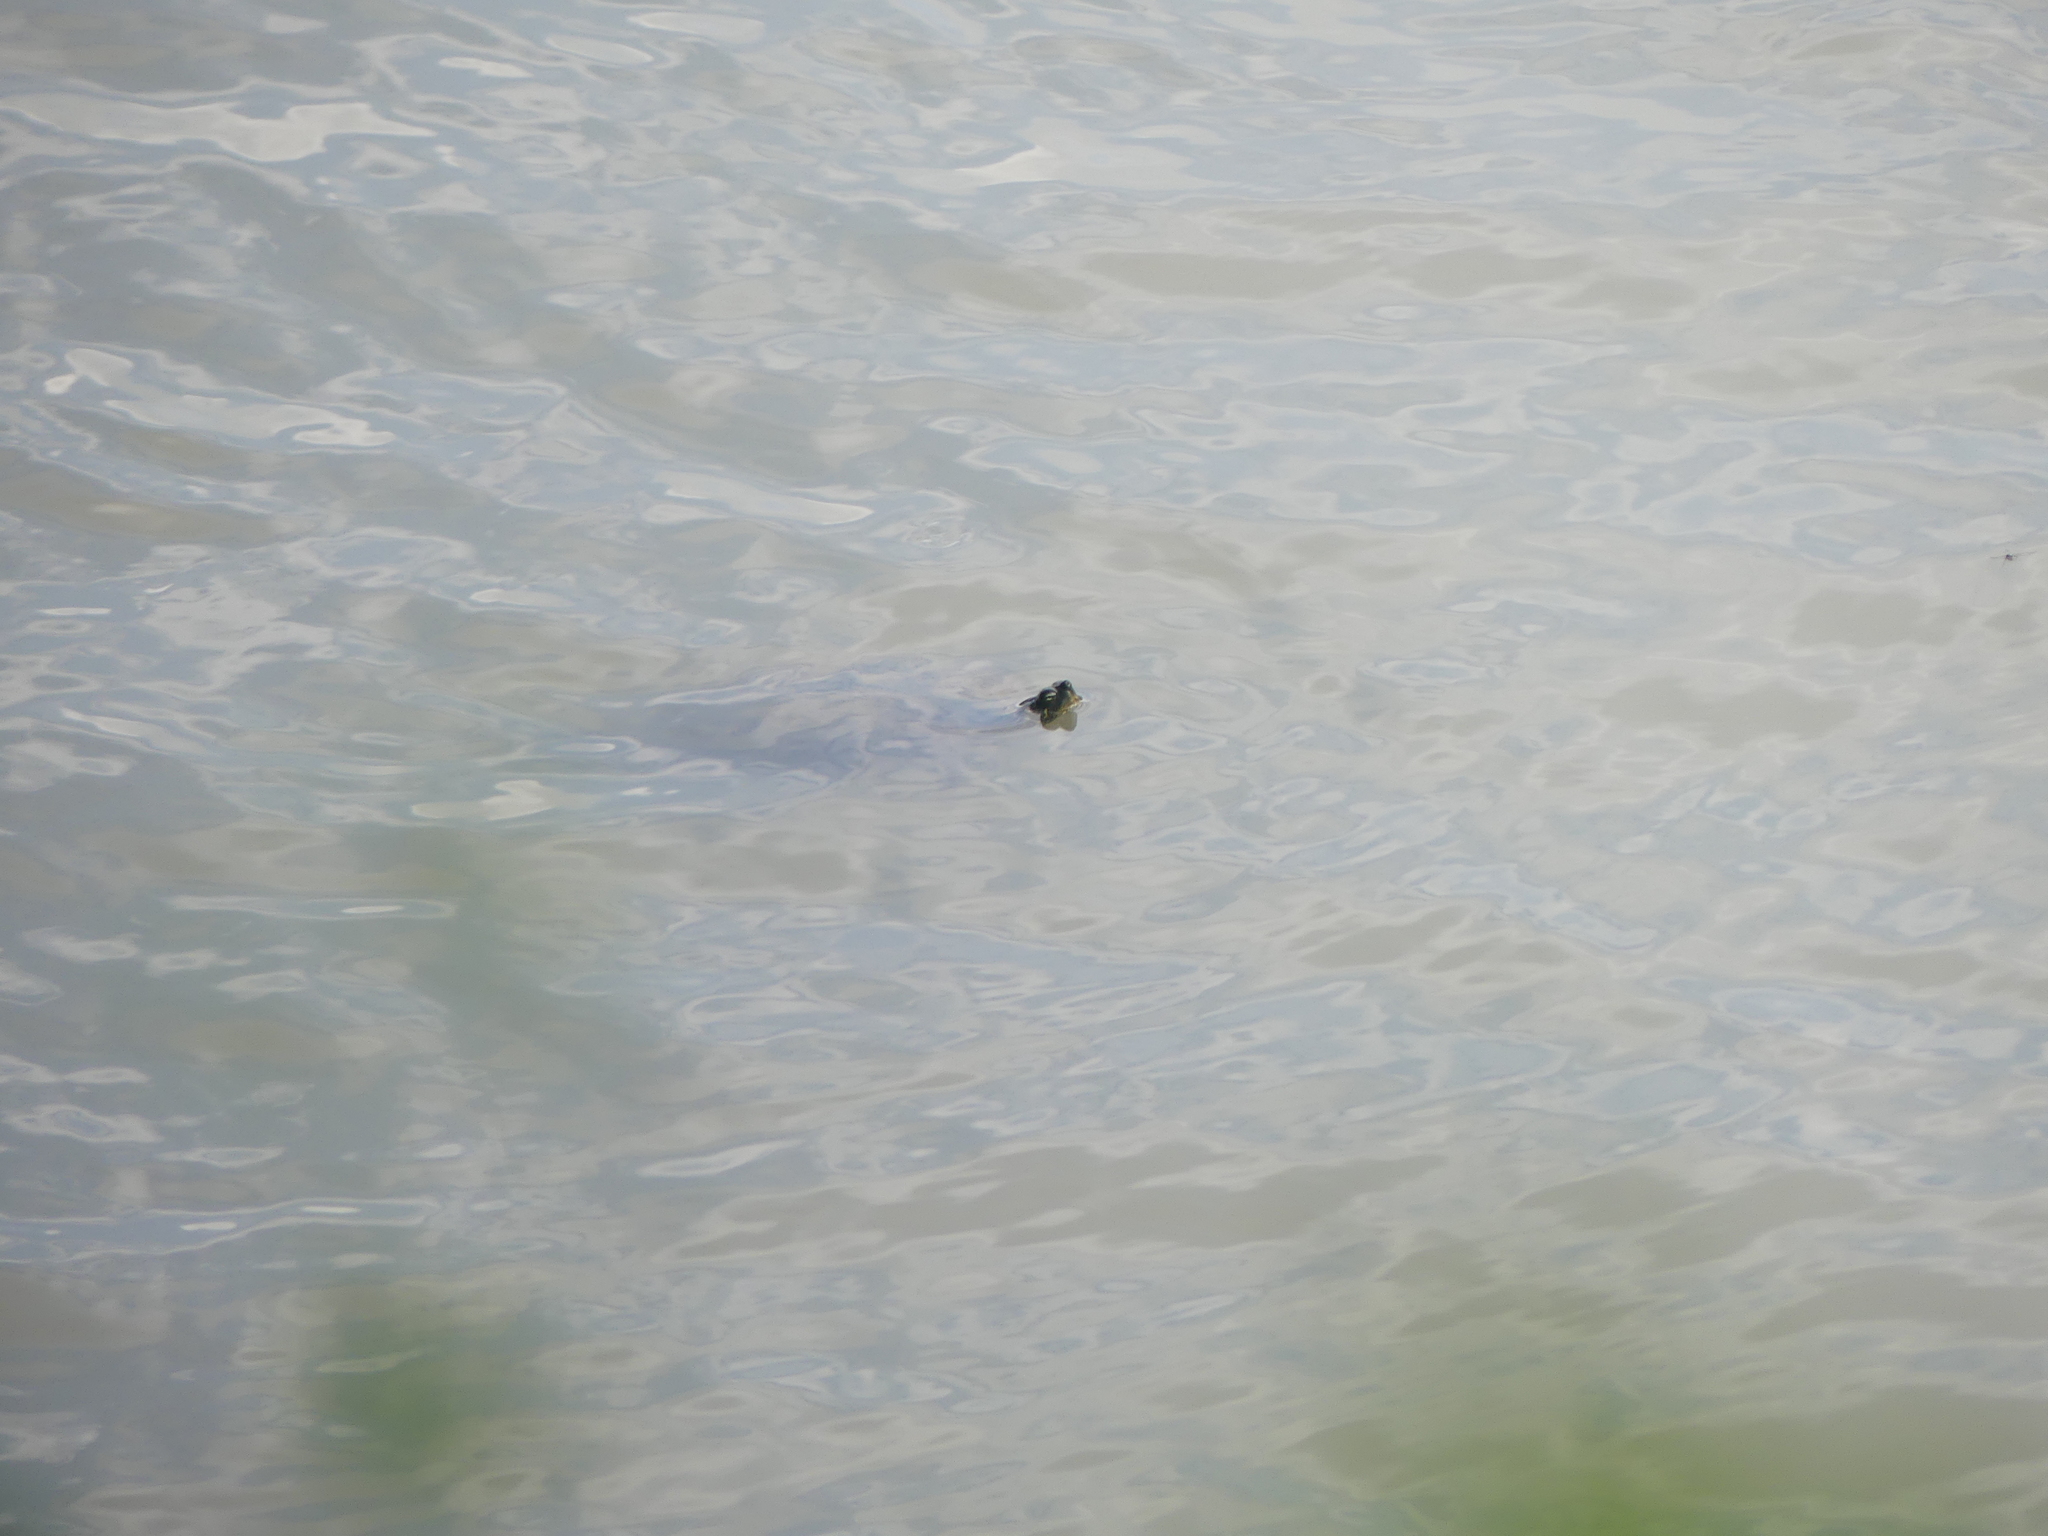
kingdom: Animalia
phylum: Chordata
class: Testudines
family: Emydidae
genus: Pseudemys
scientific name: Pseudemys concinna
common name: Eastern river cooter
